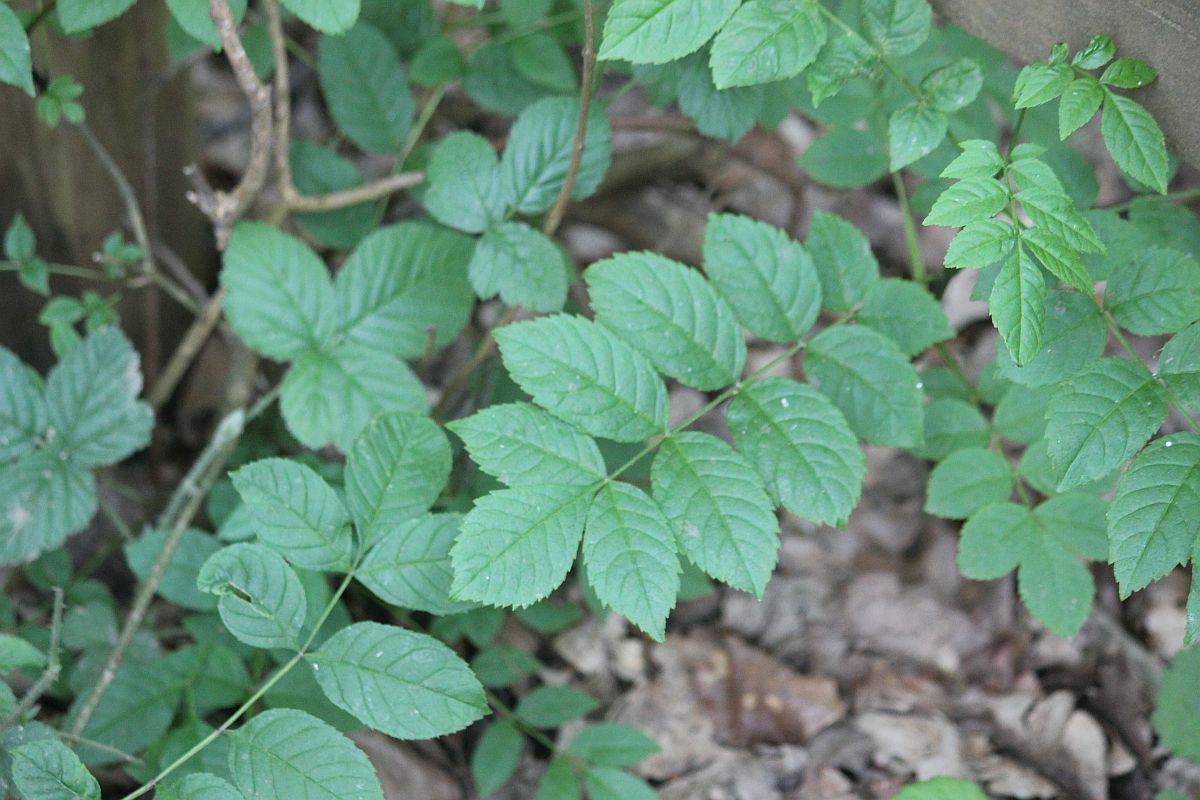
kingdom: Plantae
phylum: Tracheophyta
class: Magnoliopsida
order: Lamiales
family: Oleaceae
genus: Fraxinus
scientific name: Fraxinus excelsior
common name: European ash
